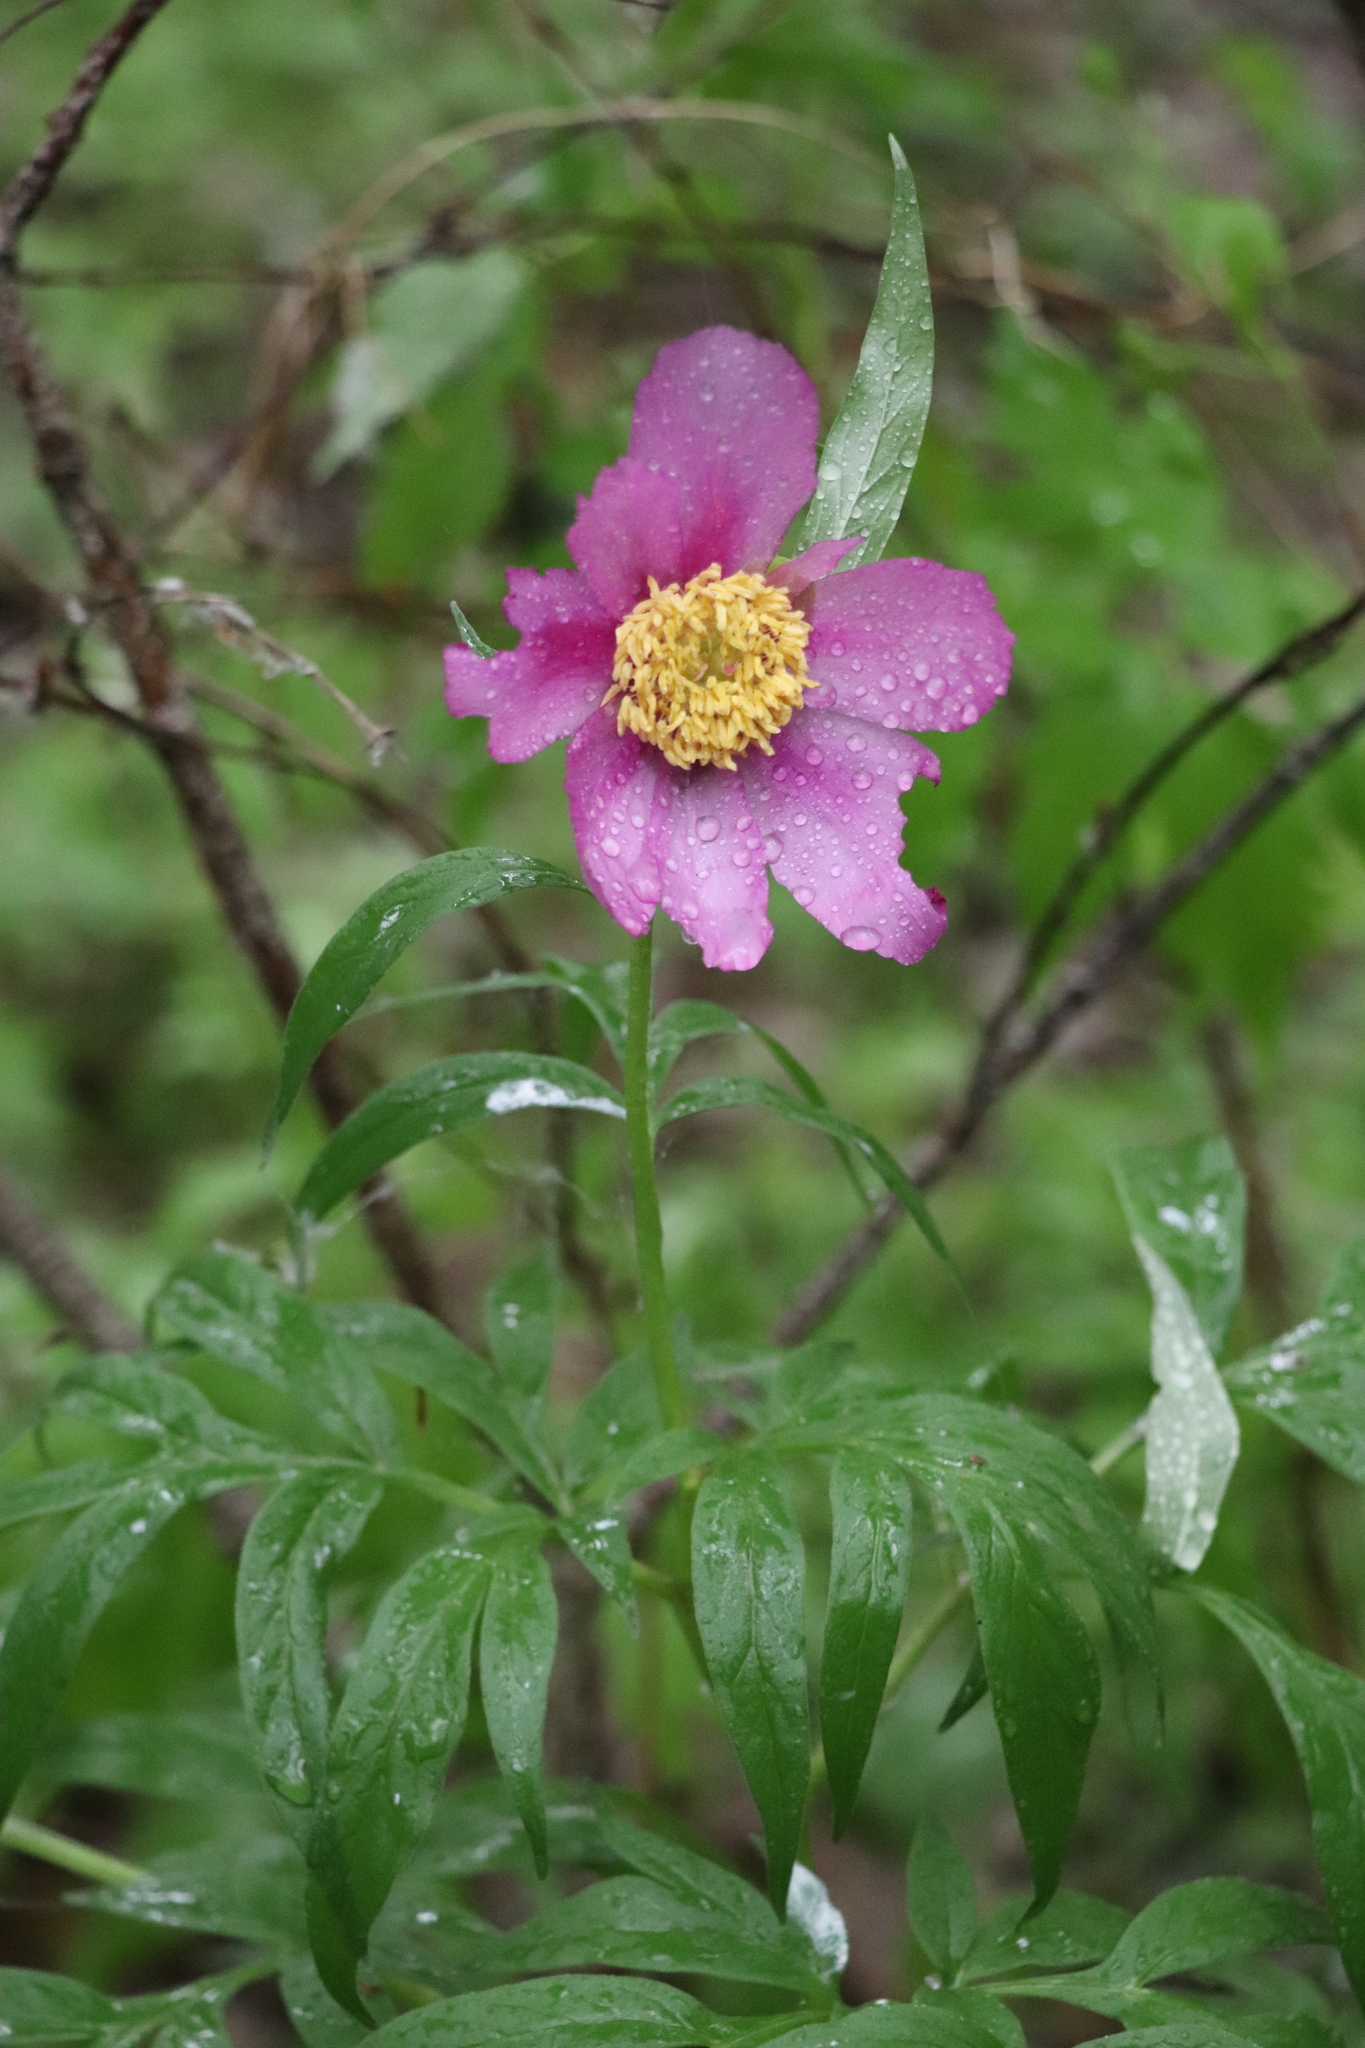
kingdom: Plantae
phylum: Tracheophyta
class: Magnoliopsida
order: Saxifragales
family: Paeoniaceae
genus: Paeonia
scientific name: Paeonia anomala
